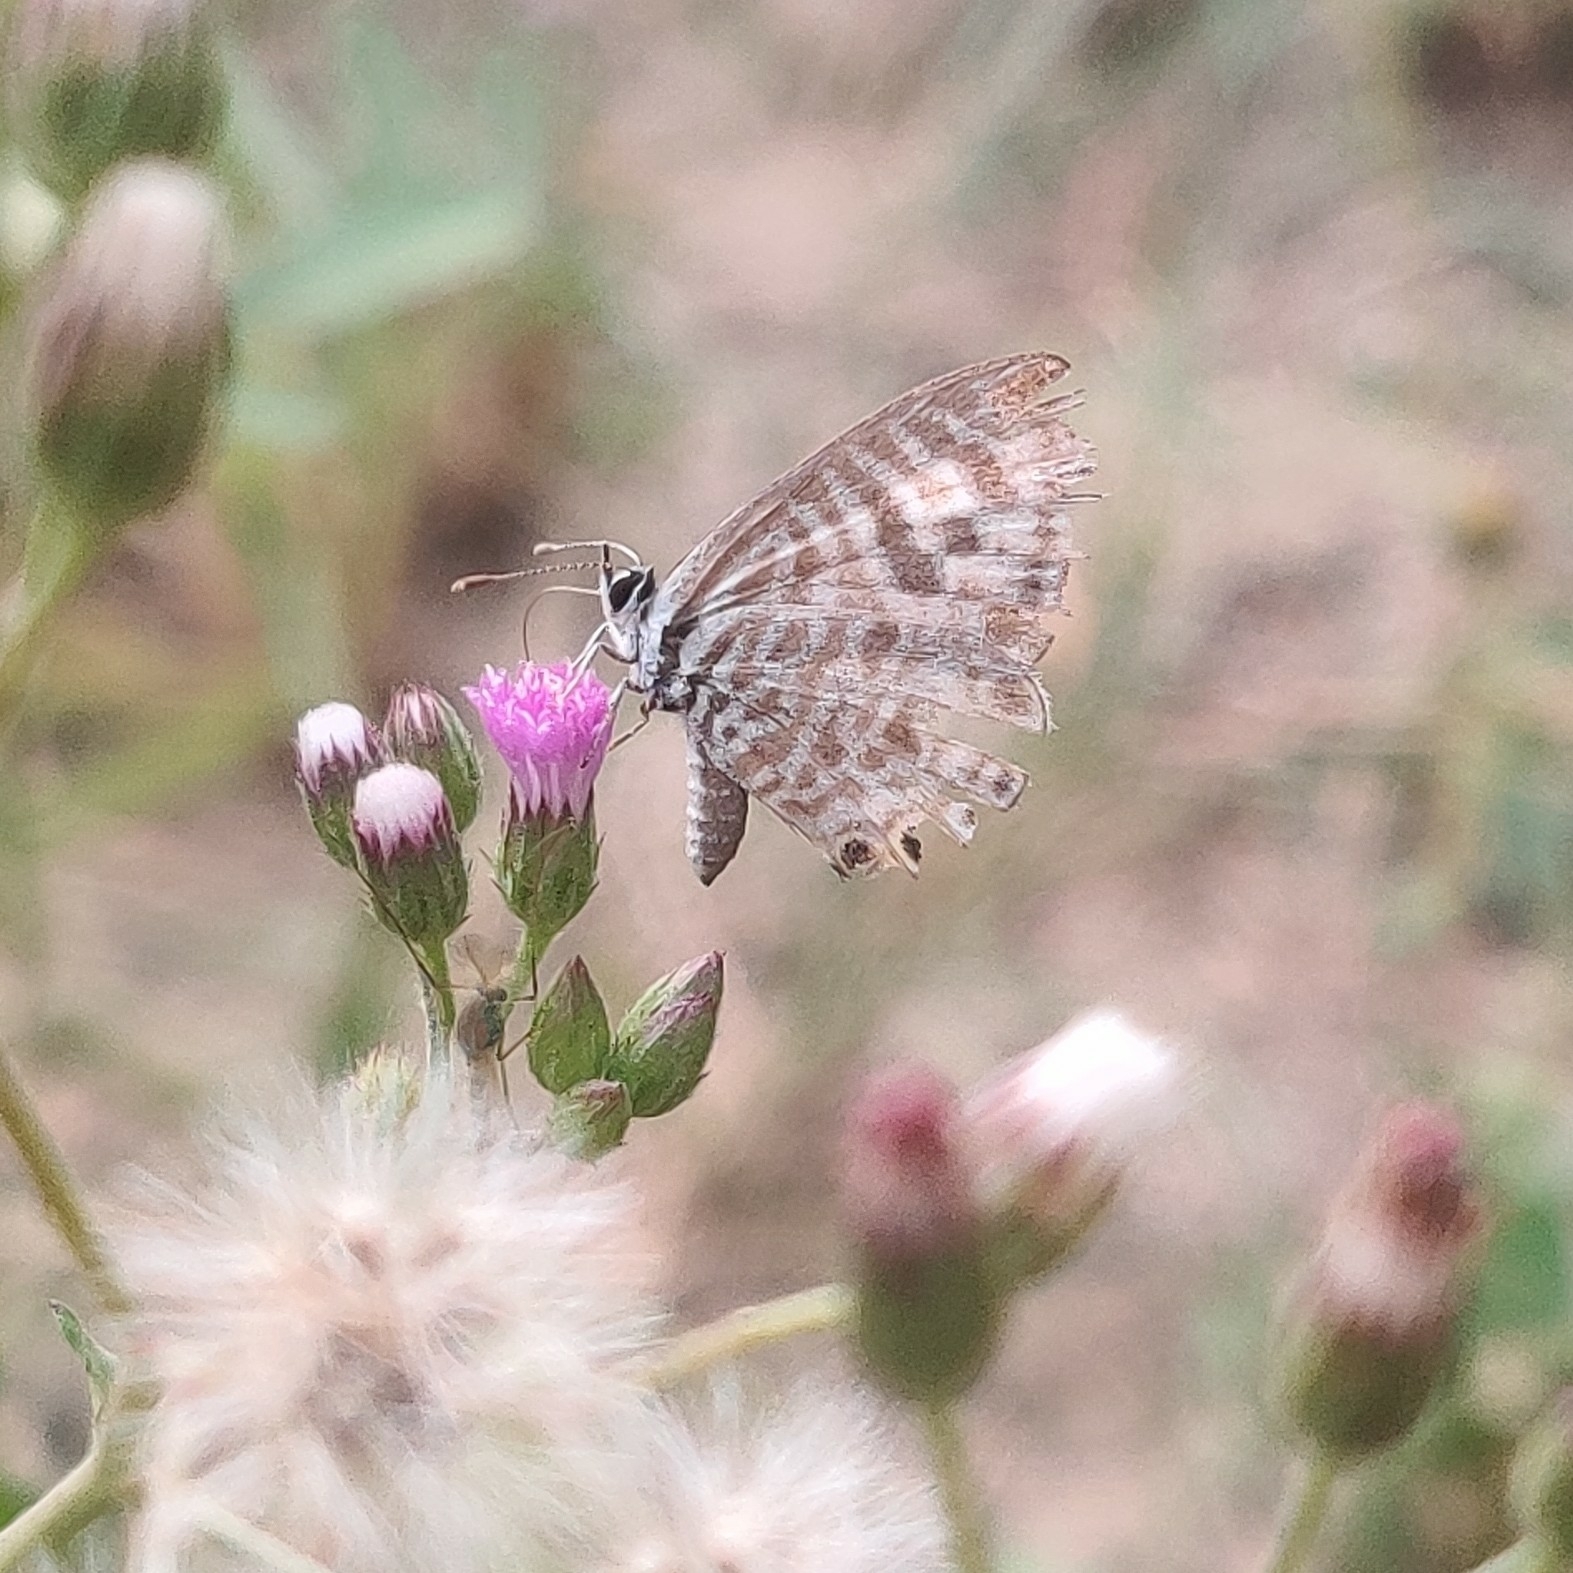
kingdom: Animalia
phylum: Arthropoda
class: Insecta
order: Lepidoptera
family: Lycaenidae
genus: Leptotes
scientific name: Leptotes plinius
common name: Zebra blue
